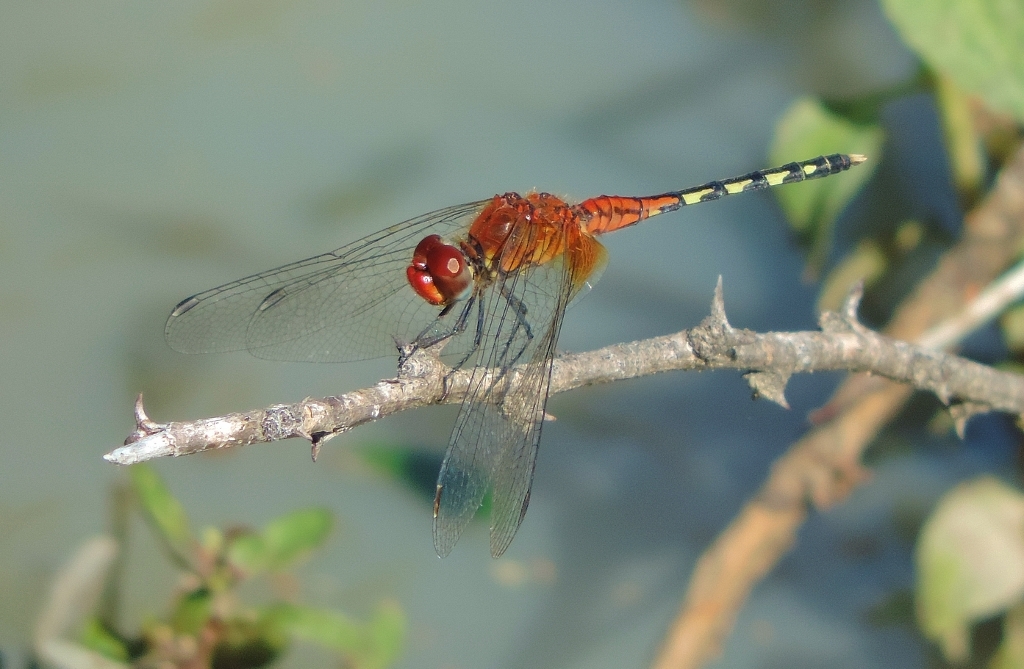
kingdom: Animalia
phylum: Arthropoda
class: Insecta
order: Odonata
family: Libellulidae
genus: Diplacodes
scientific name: Diplacodes luminans
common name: Barbet percher
